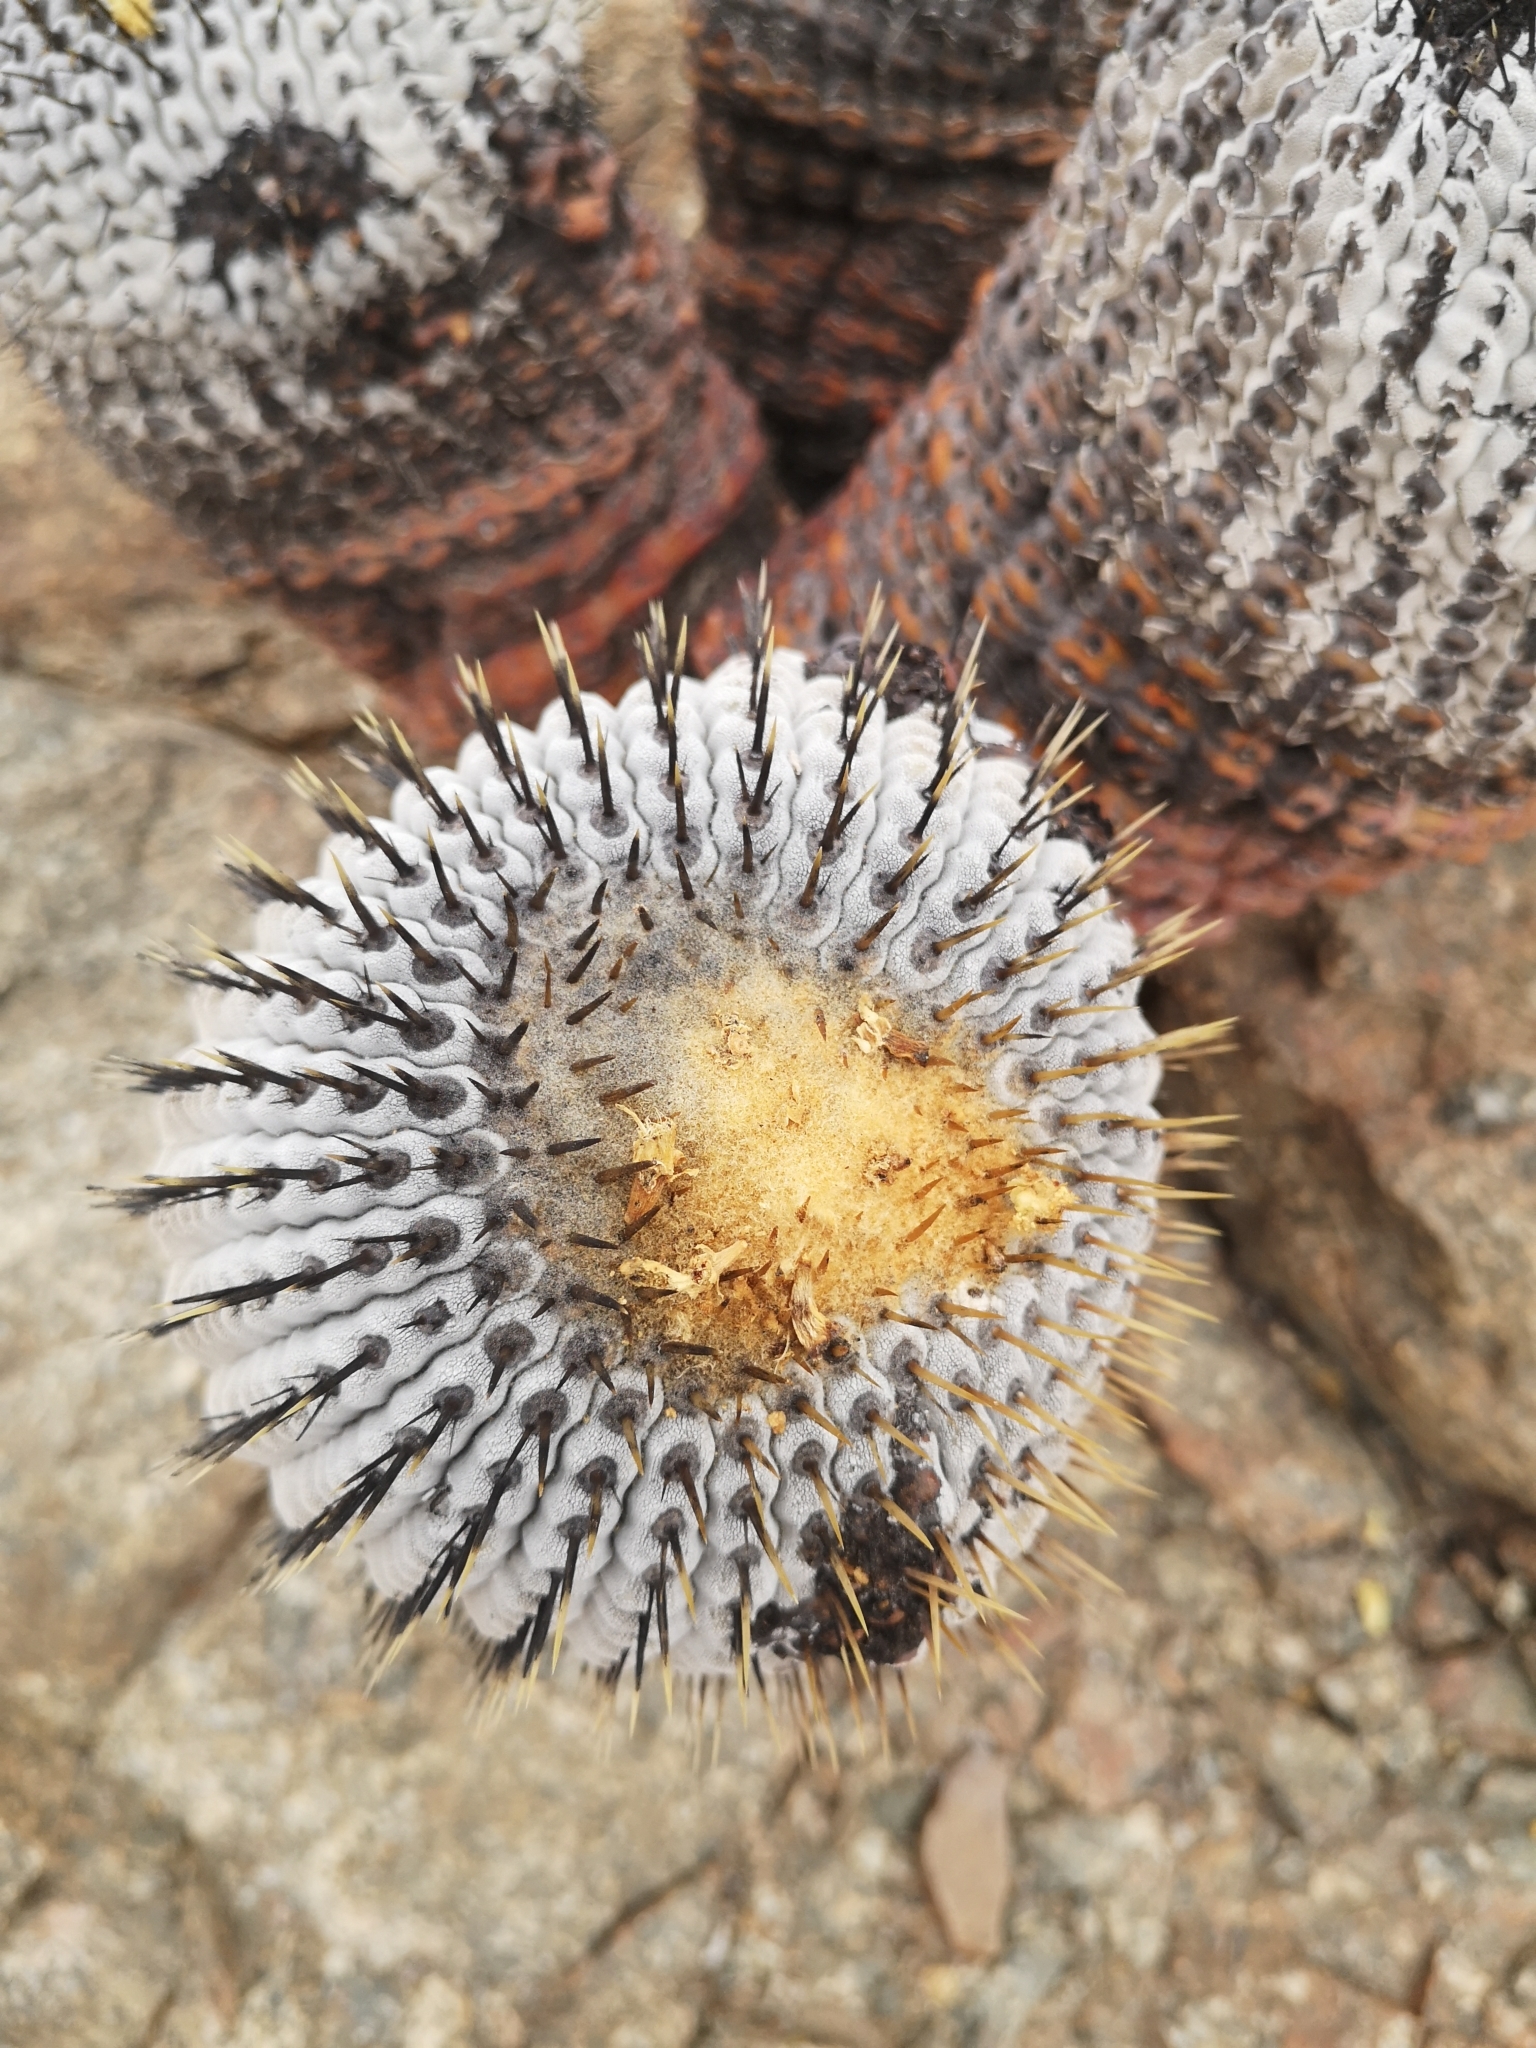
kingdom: Plantae
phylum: Tracheophyta
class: Magnoliopsida
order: Caryophyllales
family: Cactaceae
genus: Copiapoa
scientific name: Copiapoa cinerea
